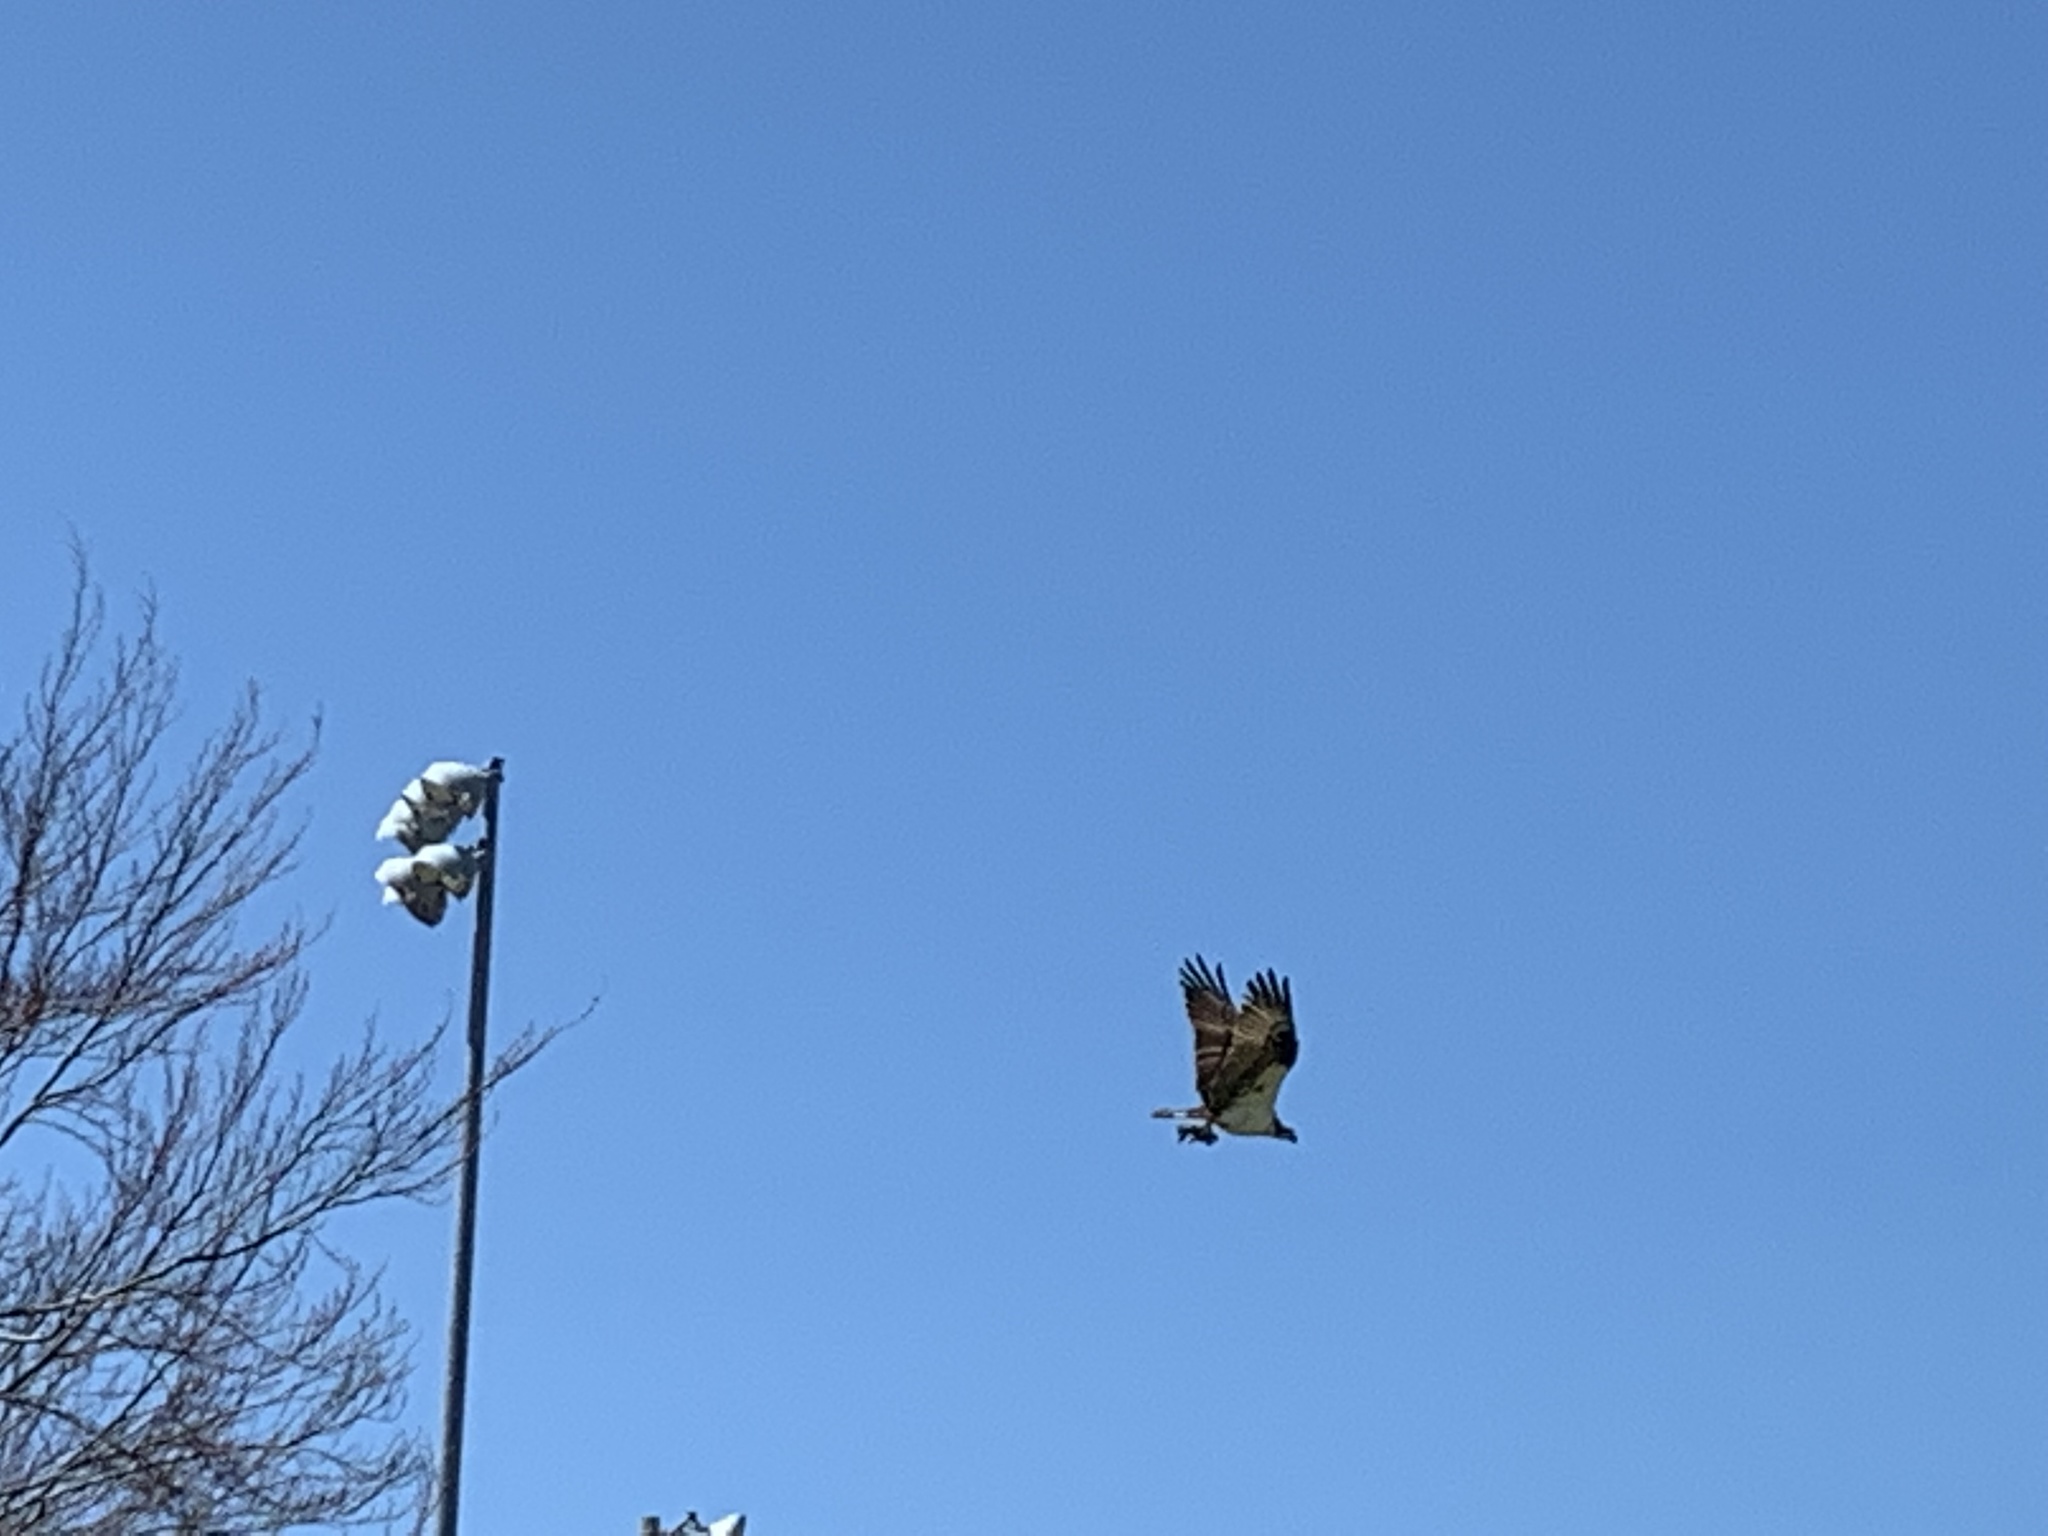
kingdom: Animalia
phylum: Chordata
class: Aves
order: Accipitriformes
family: Pandionidae
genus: Pandion
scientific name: Pandion haliaetus
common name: Osprey
